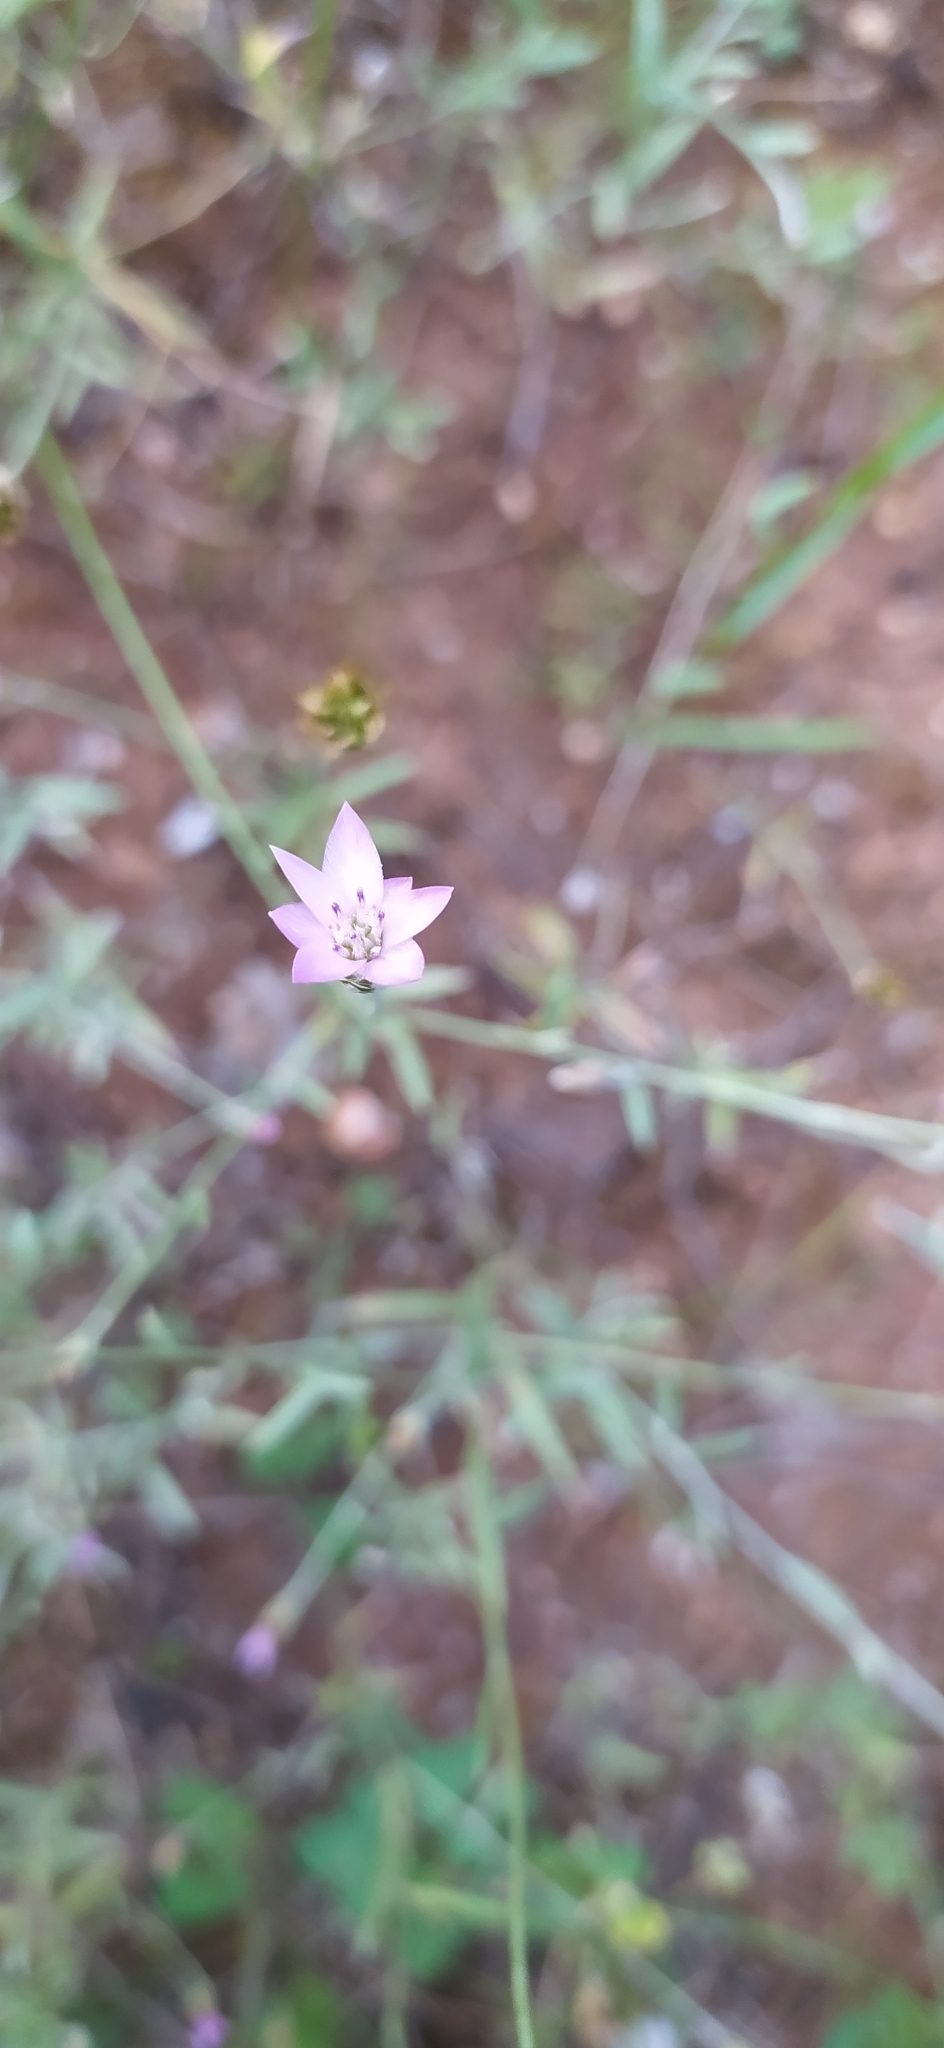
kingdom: Plantae
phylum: Tracheophyta
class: Magnoliopsida
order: Asterales
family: Asteraceae
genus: Xeranthemum
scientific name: Xeranthemum cylindraceum
